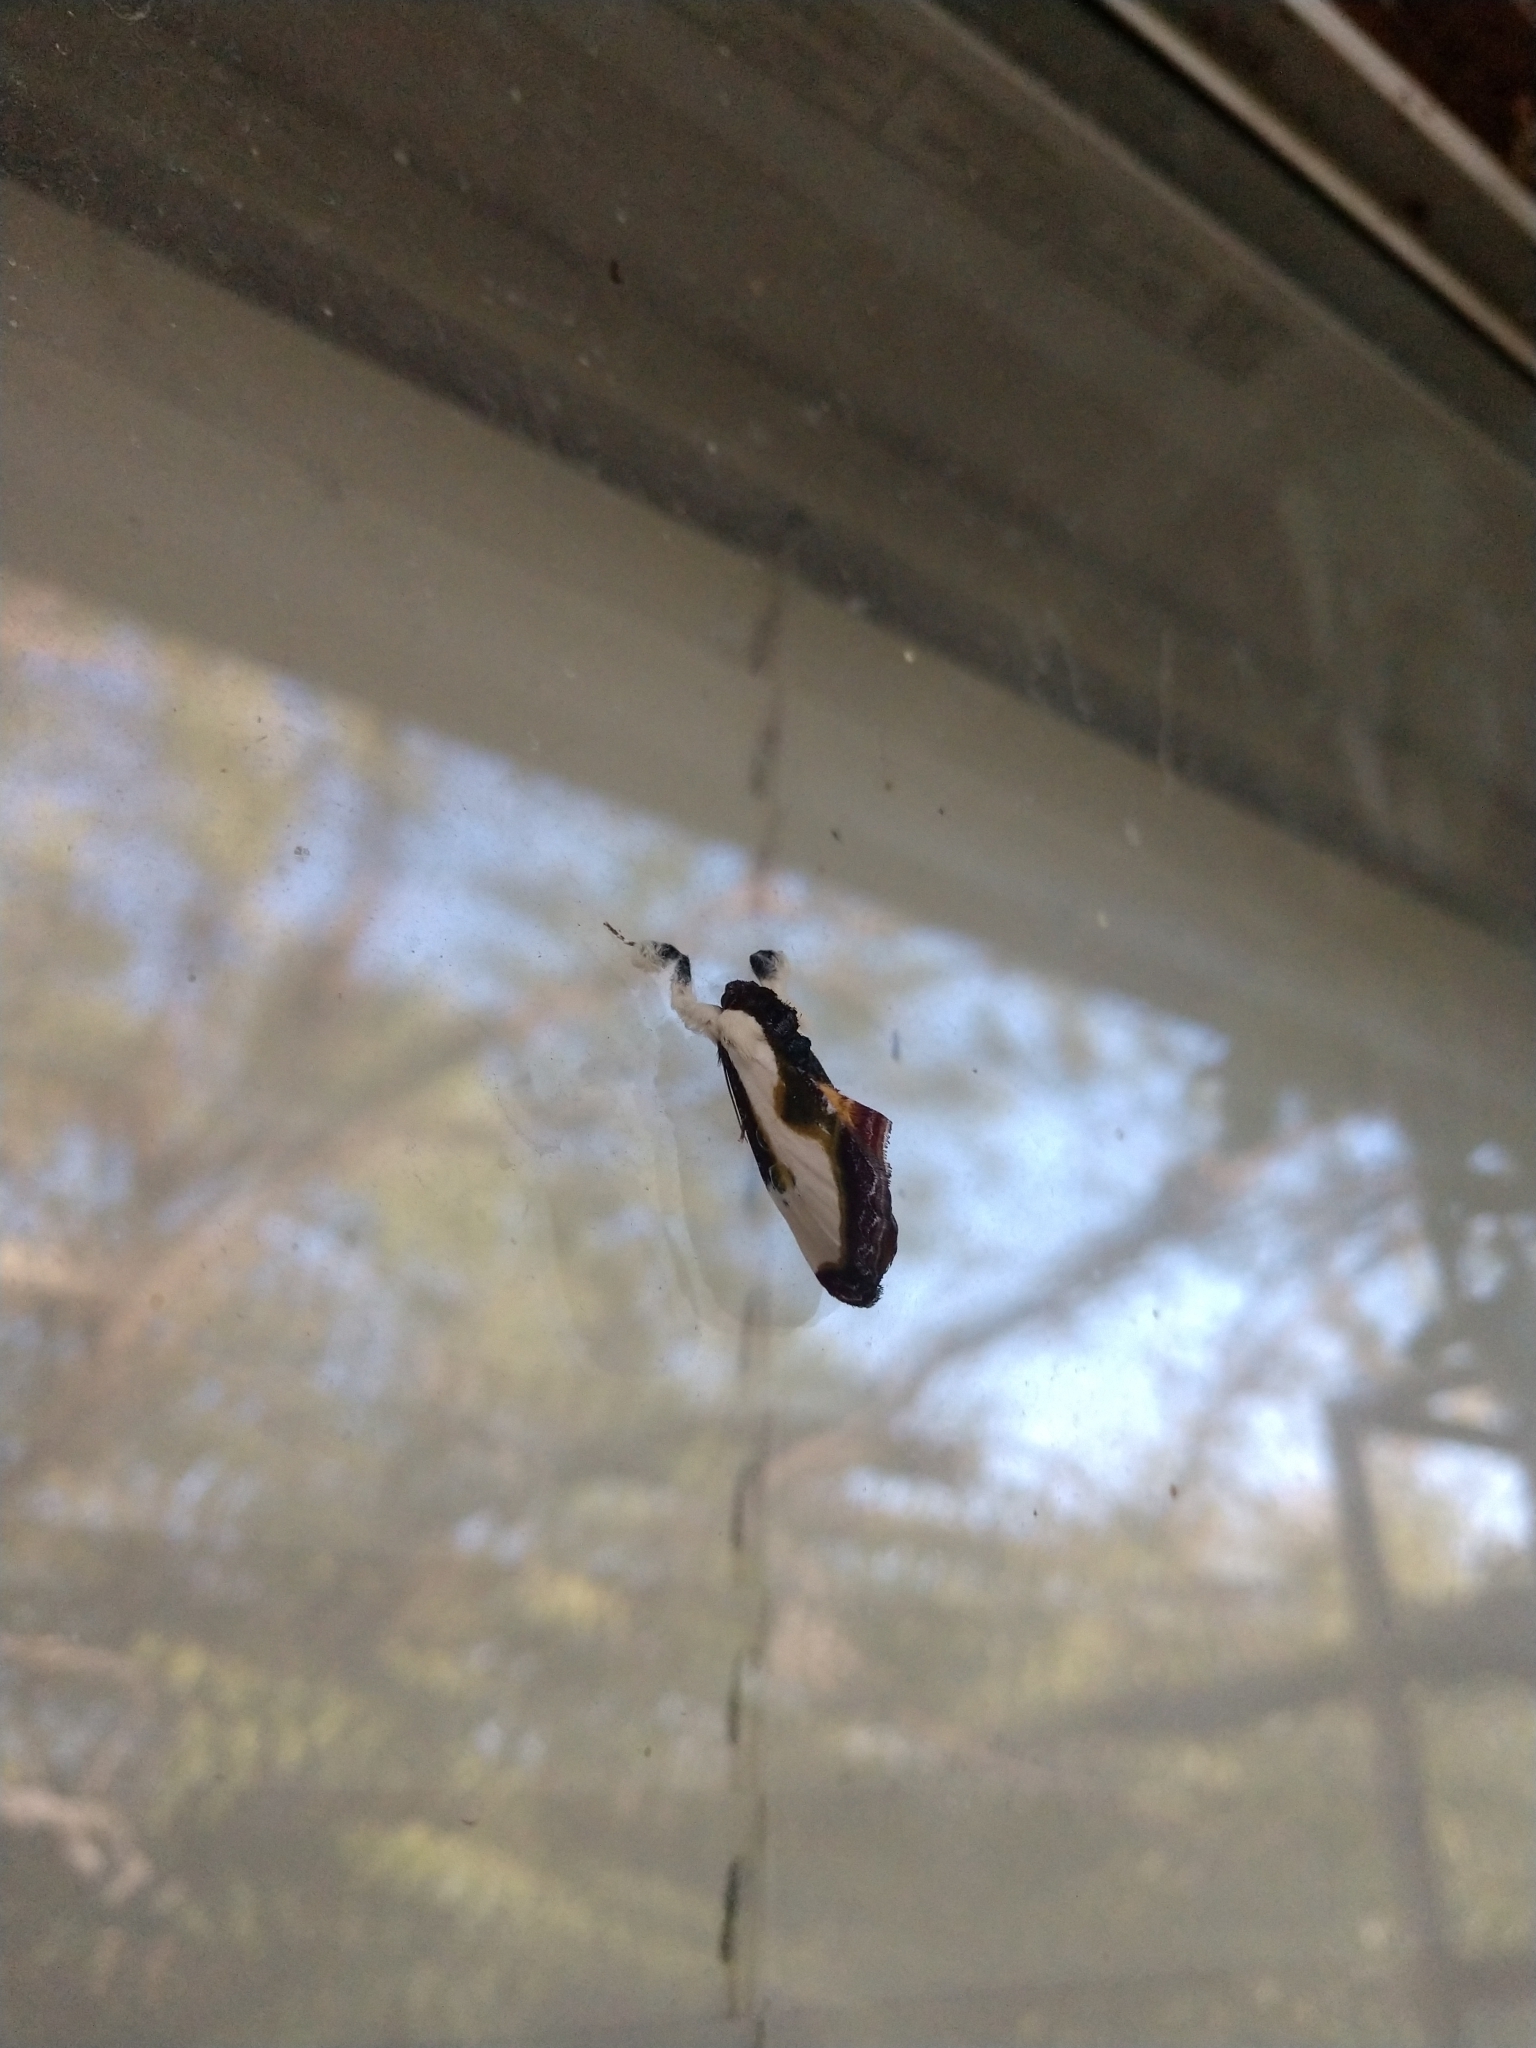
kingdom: Animalia
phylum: Arthropoda
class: Insecta
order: Lepidoptera
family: Noctuidae
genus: Eudryas
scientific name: Eudryas grata
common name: Beautiful wood-nymph
